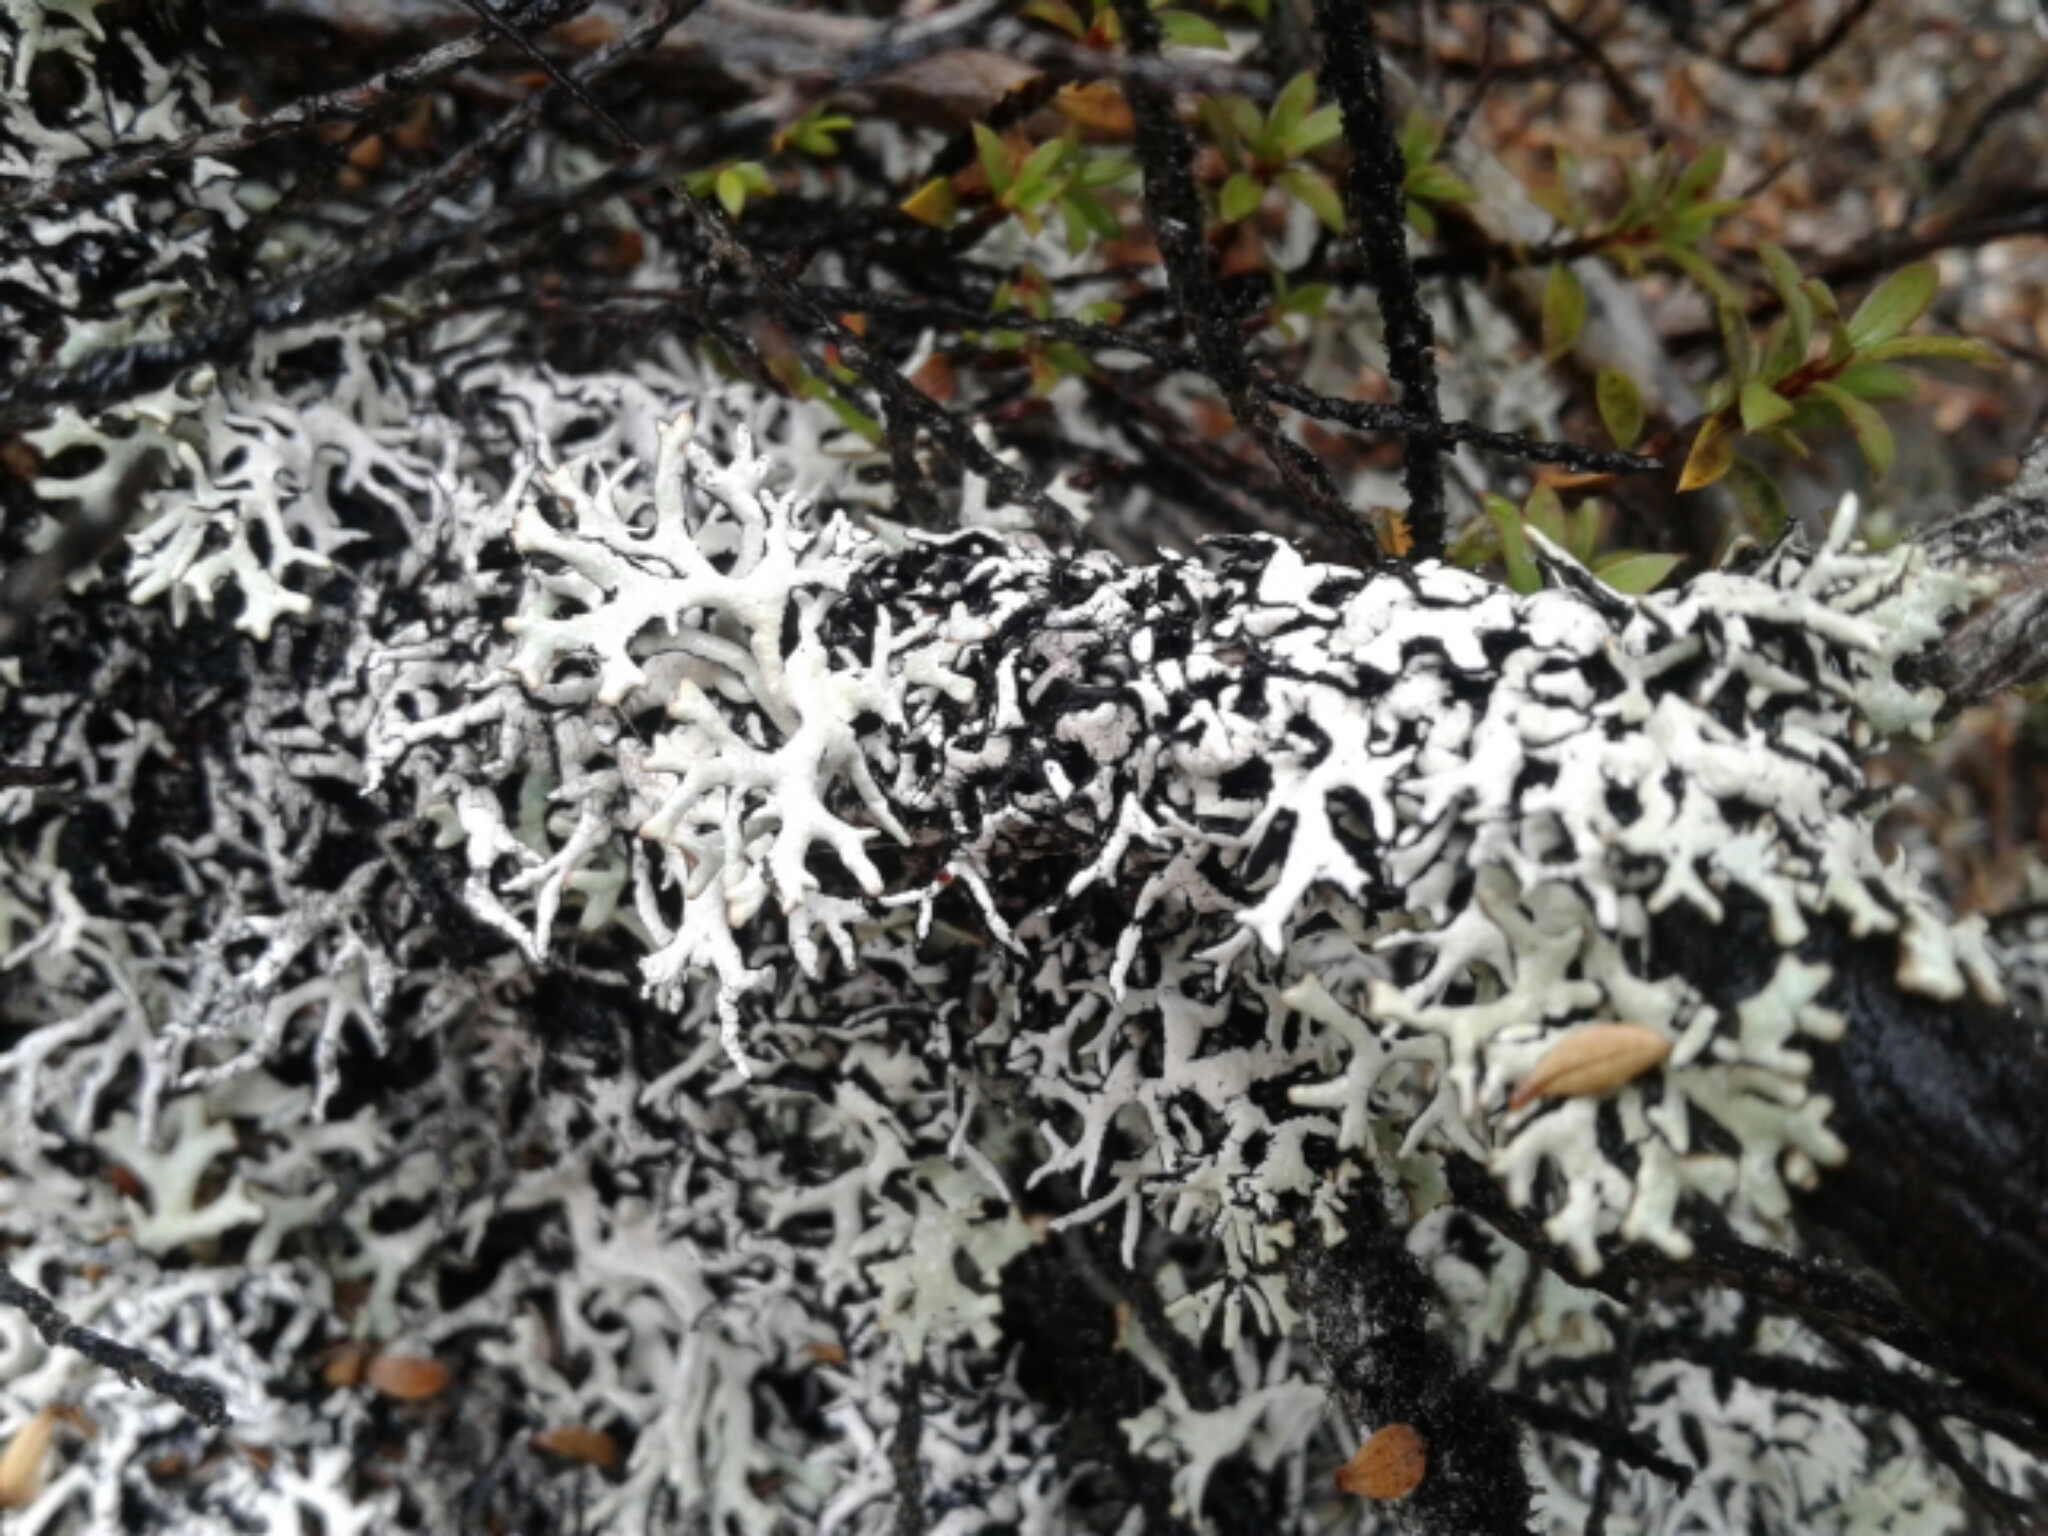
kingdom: Fungi
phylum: Ascomycota
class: Lecanoromycetes
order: Lecanorales
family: Parmeliaceae
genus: Hypogymnia
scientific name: Hypogymnia
